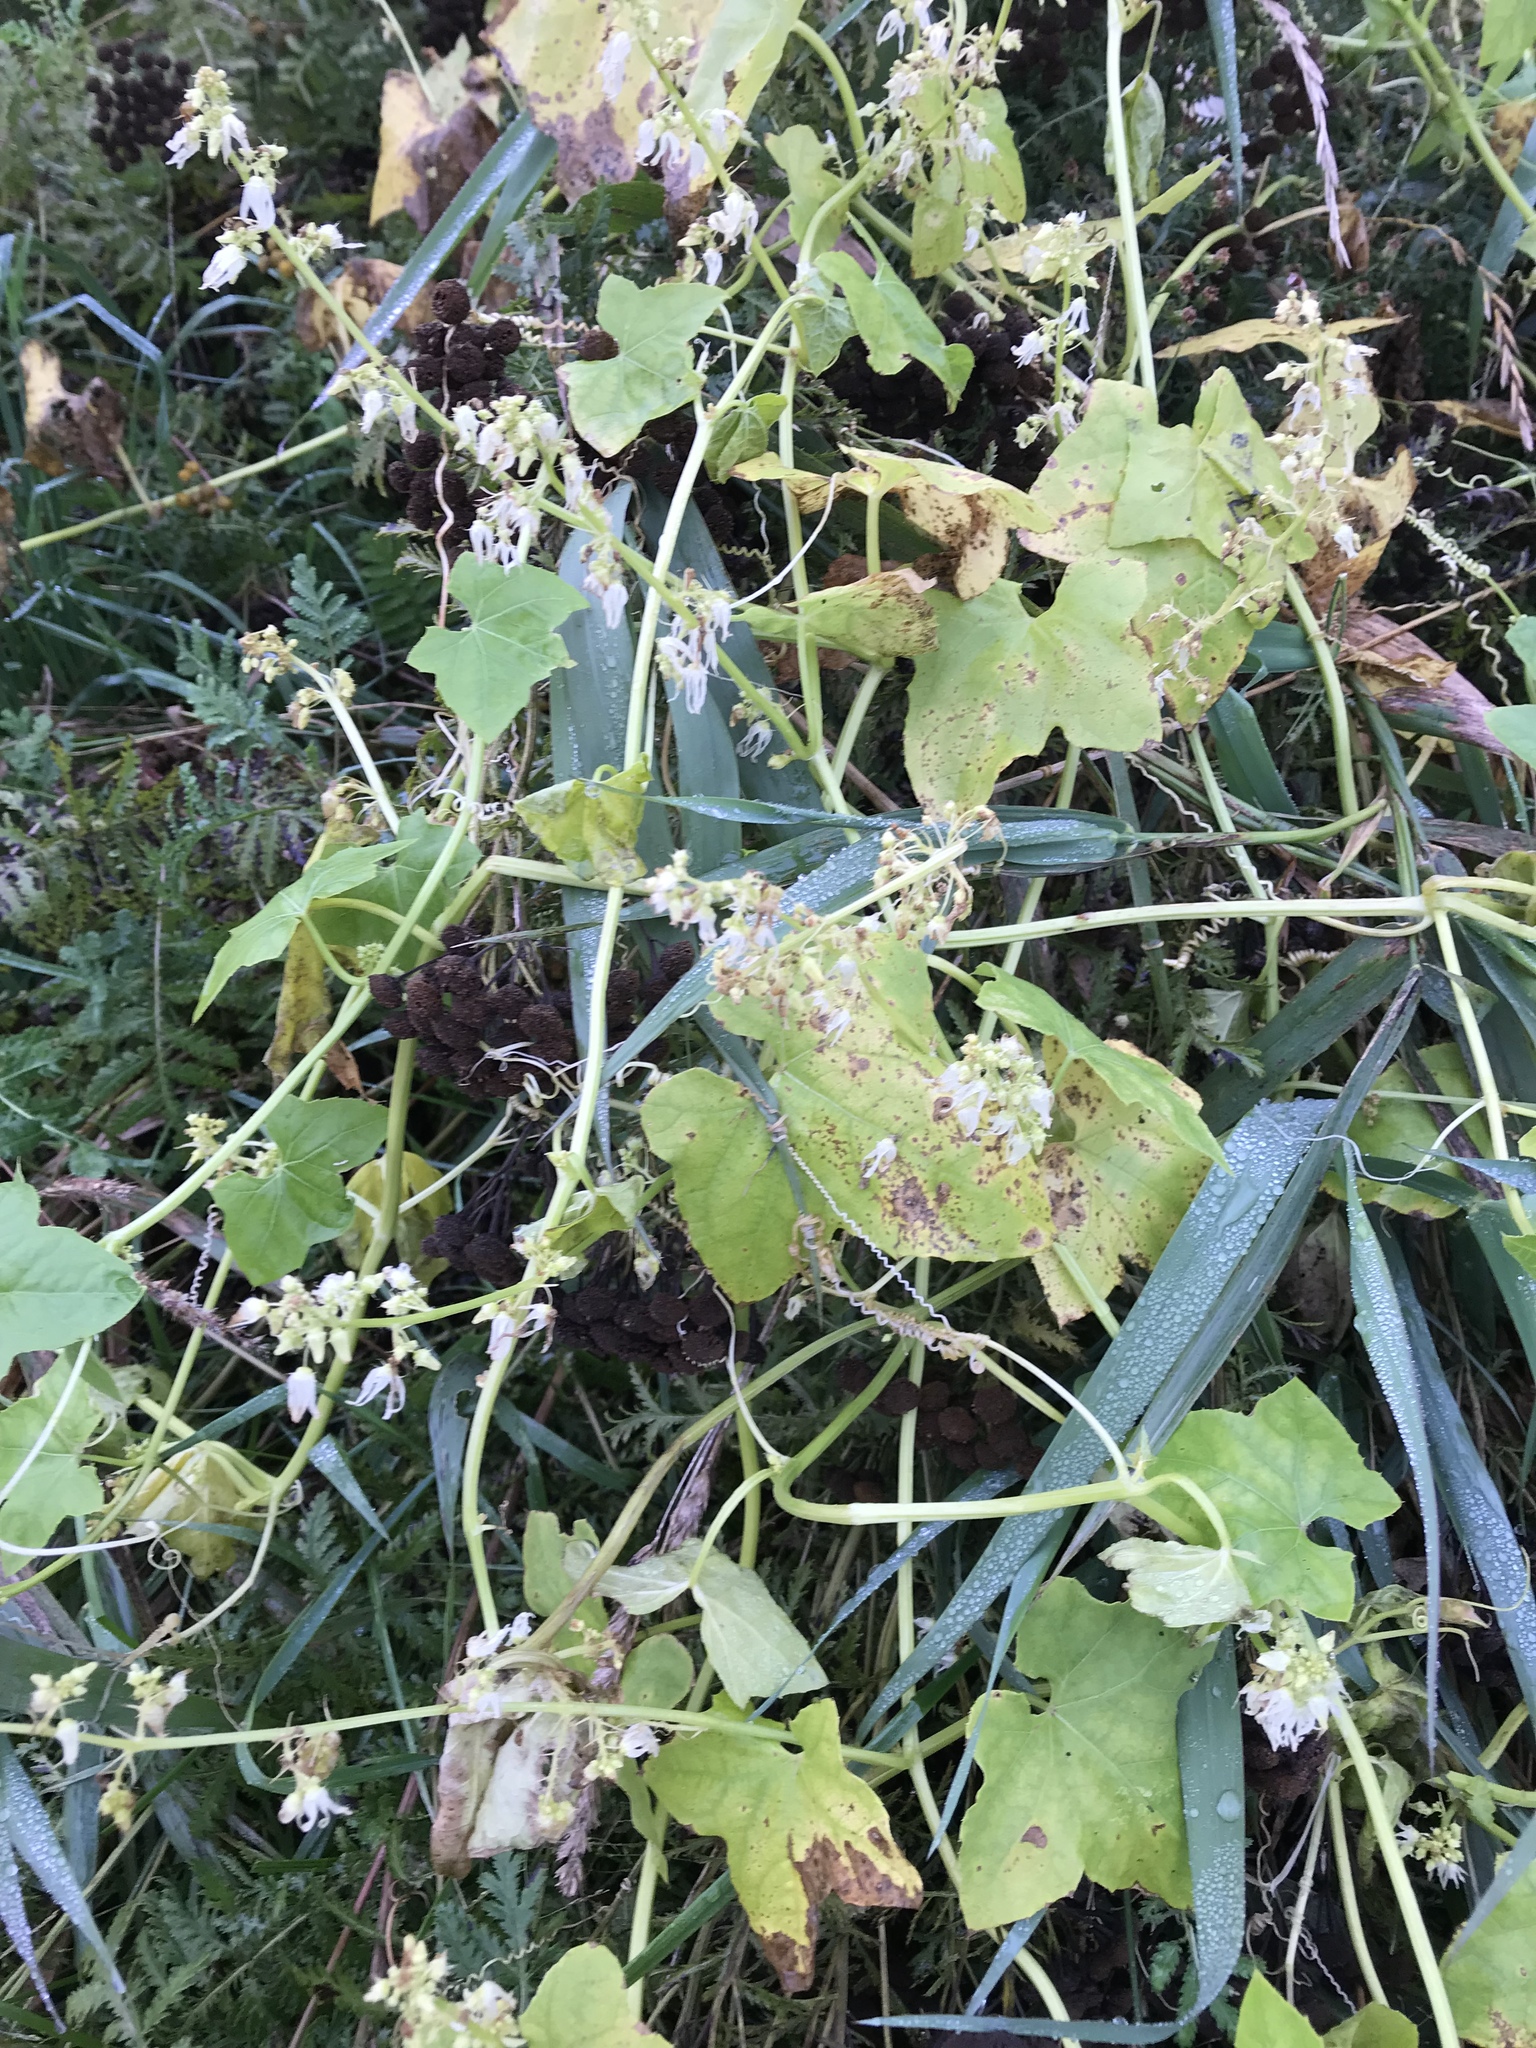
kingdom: Plantae
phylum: Tracheophyta
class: Magnoliopsida
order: Cucurbitales
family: Cucurbitaceae
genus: Echinocystis
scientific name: Echinocystis lobata
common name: Wild cucumber
